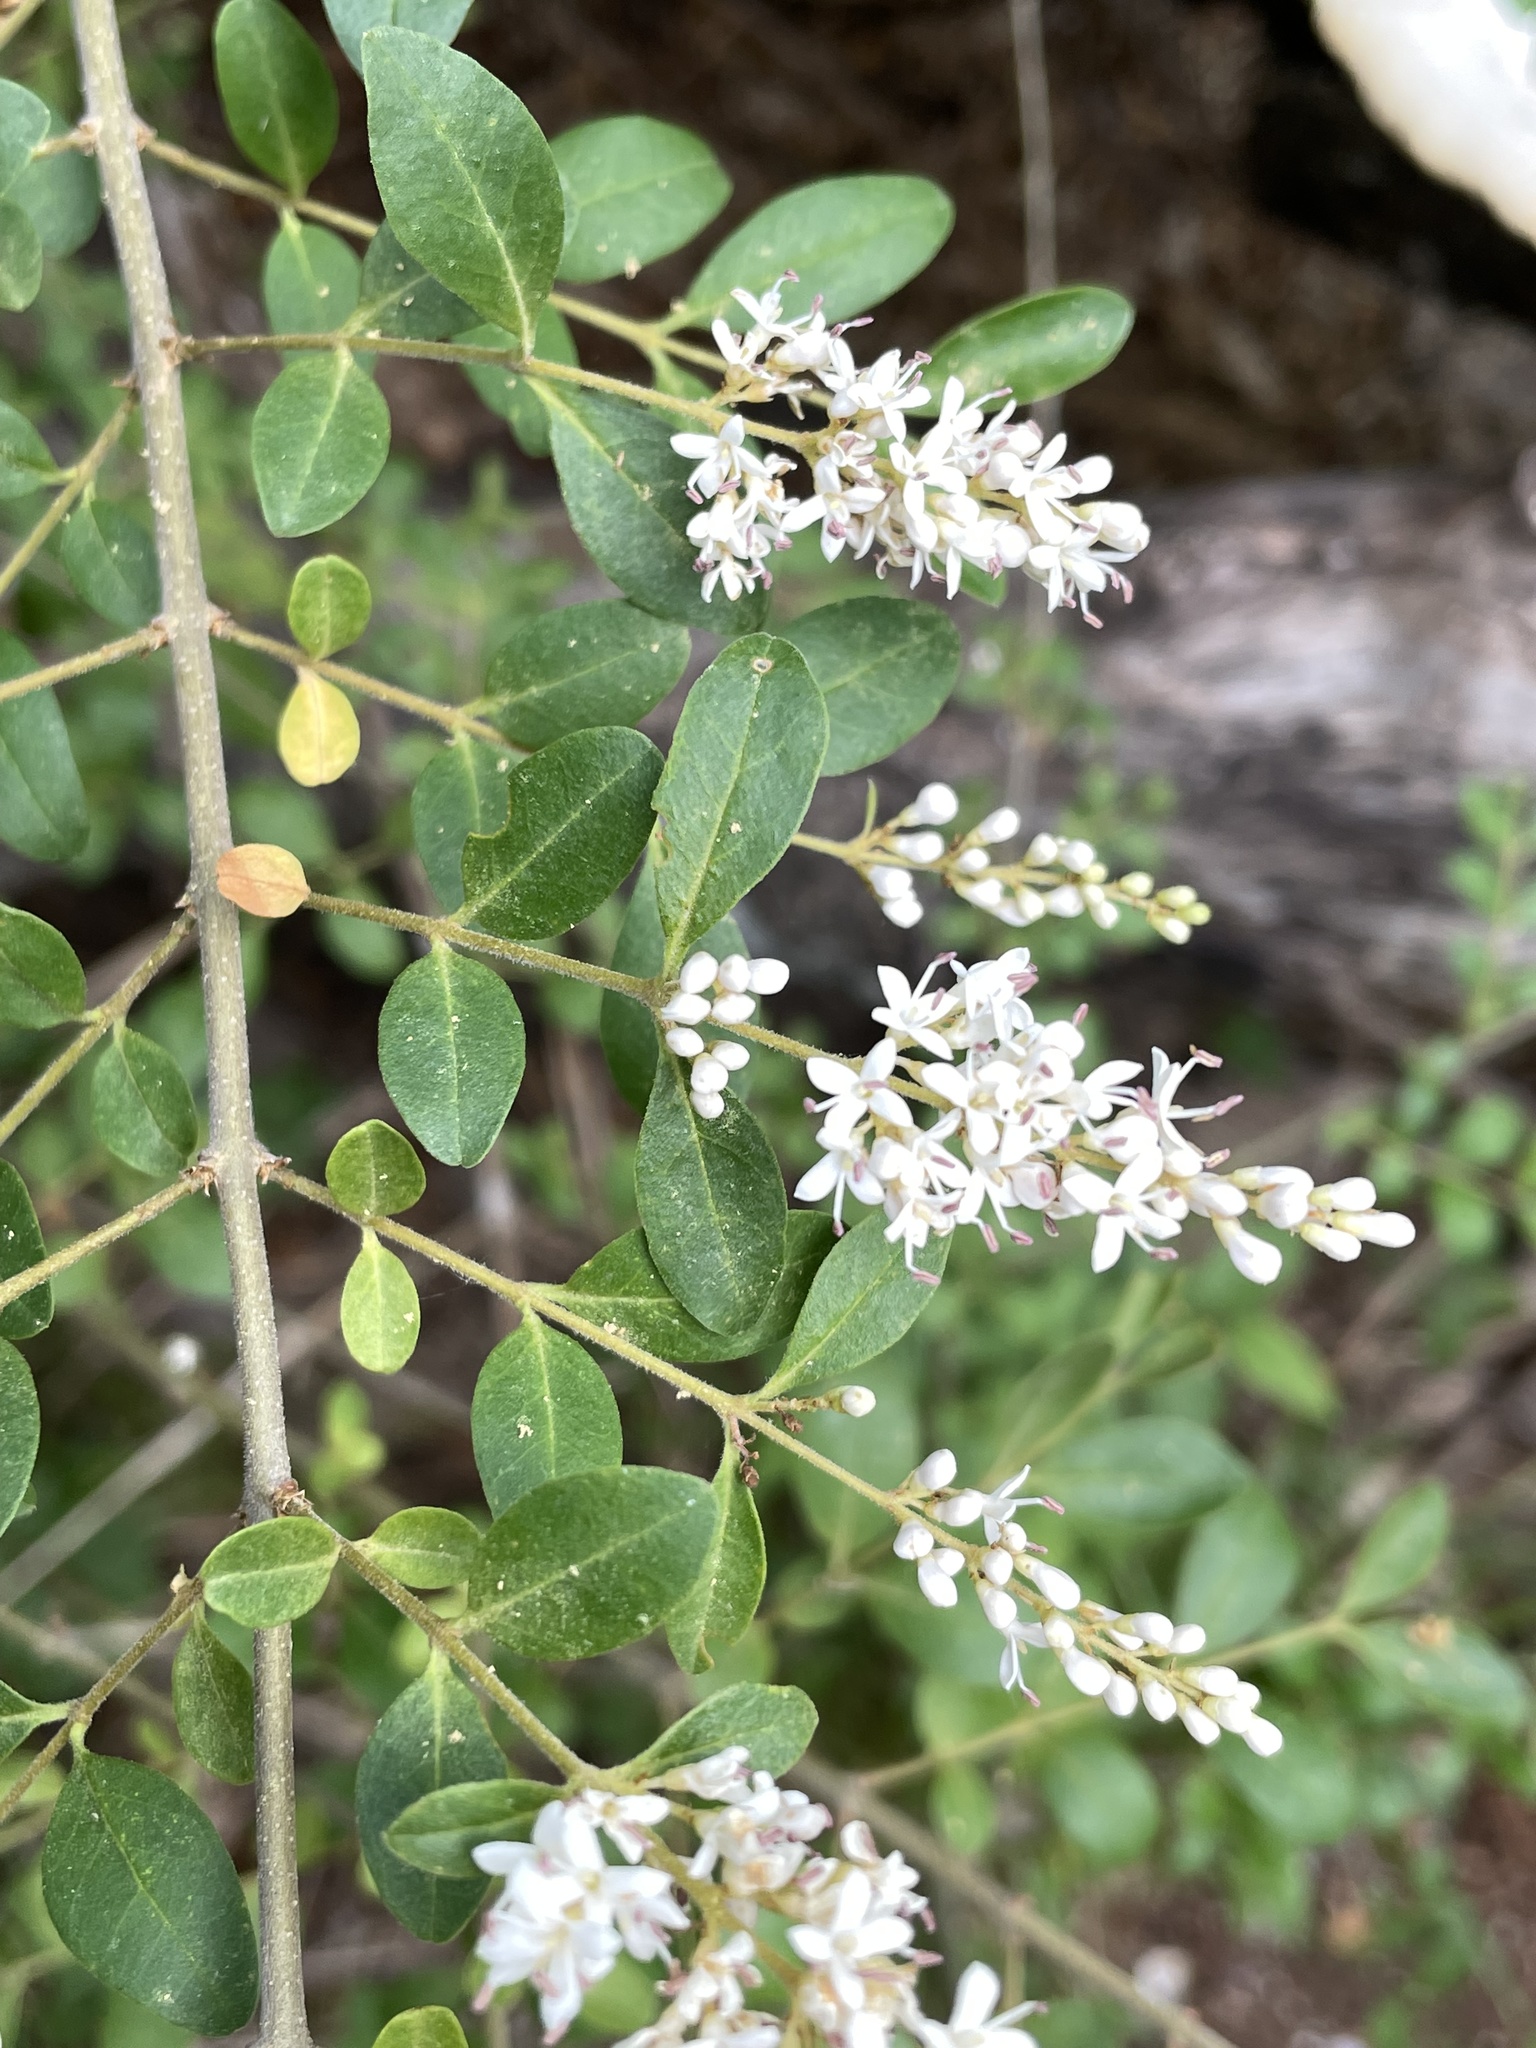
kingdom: Plantae
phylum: Tracheophyta
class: Magnoliopsida
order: Lamiales
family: Oleaceae
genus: Ligustrum
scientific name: Ligustrum sinense
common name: Chinese privet
